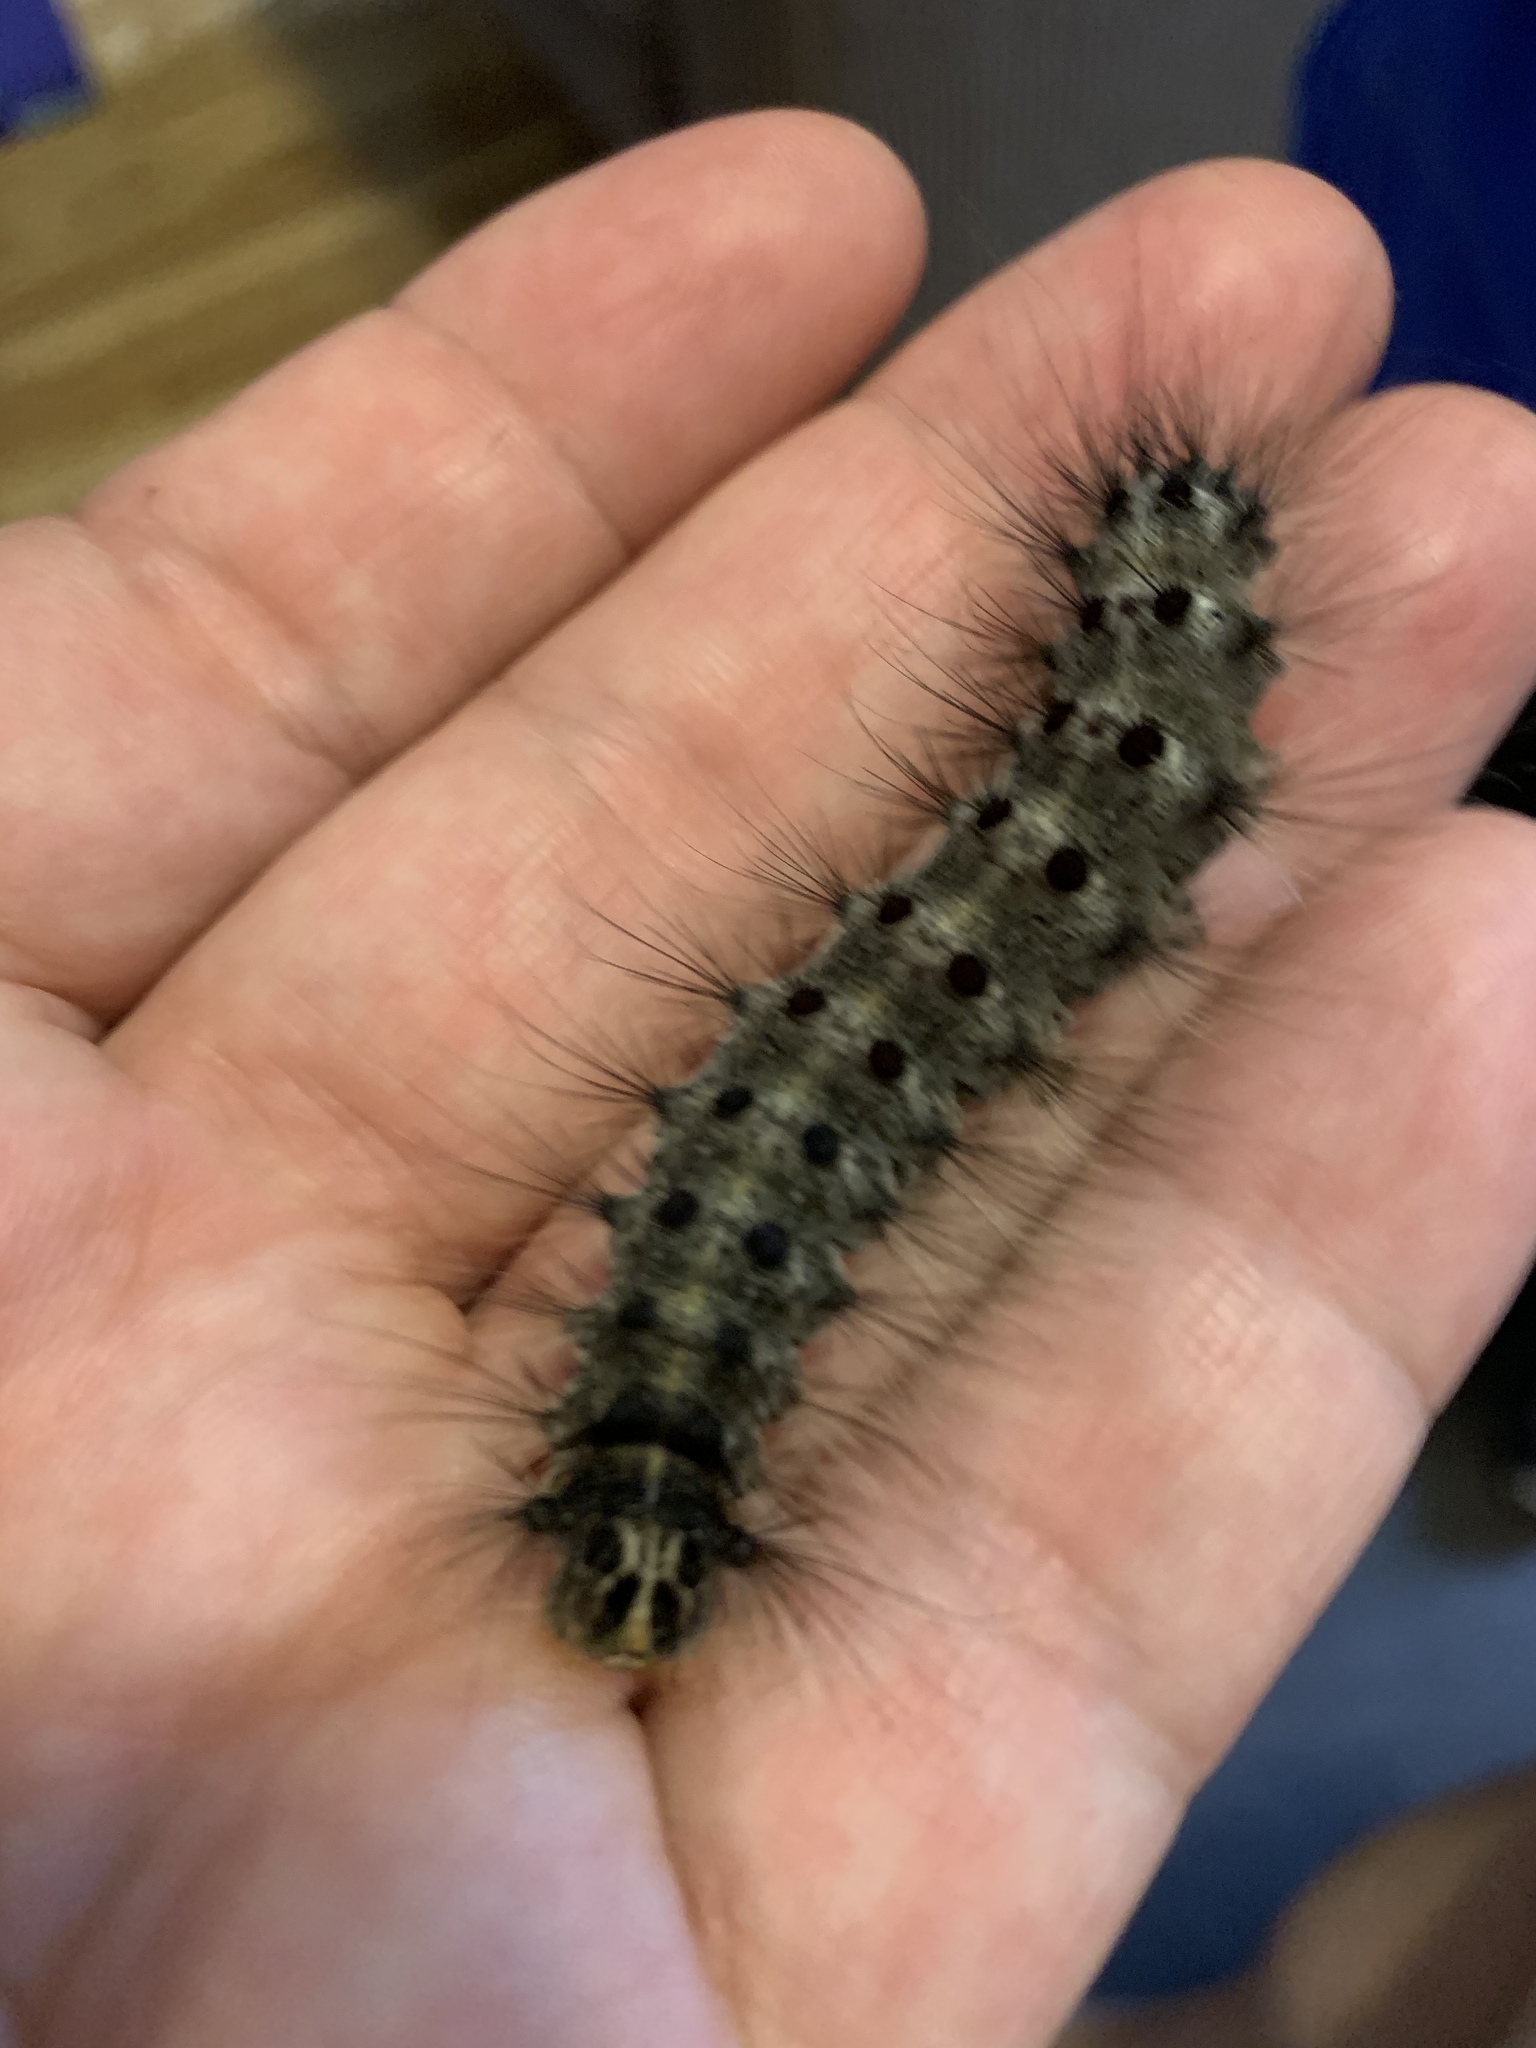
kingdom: Animalia
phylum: Arthropoda
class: Insecta
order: Lepidoptera
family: Erebidae
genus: Lymantria
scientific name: Lymantria dispar
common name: Gypsy moth
